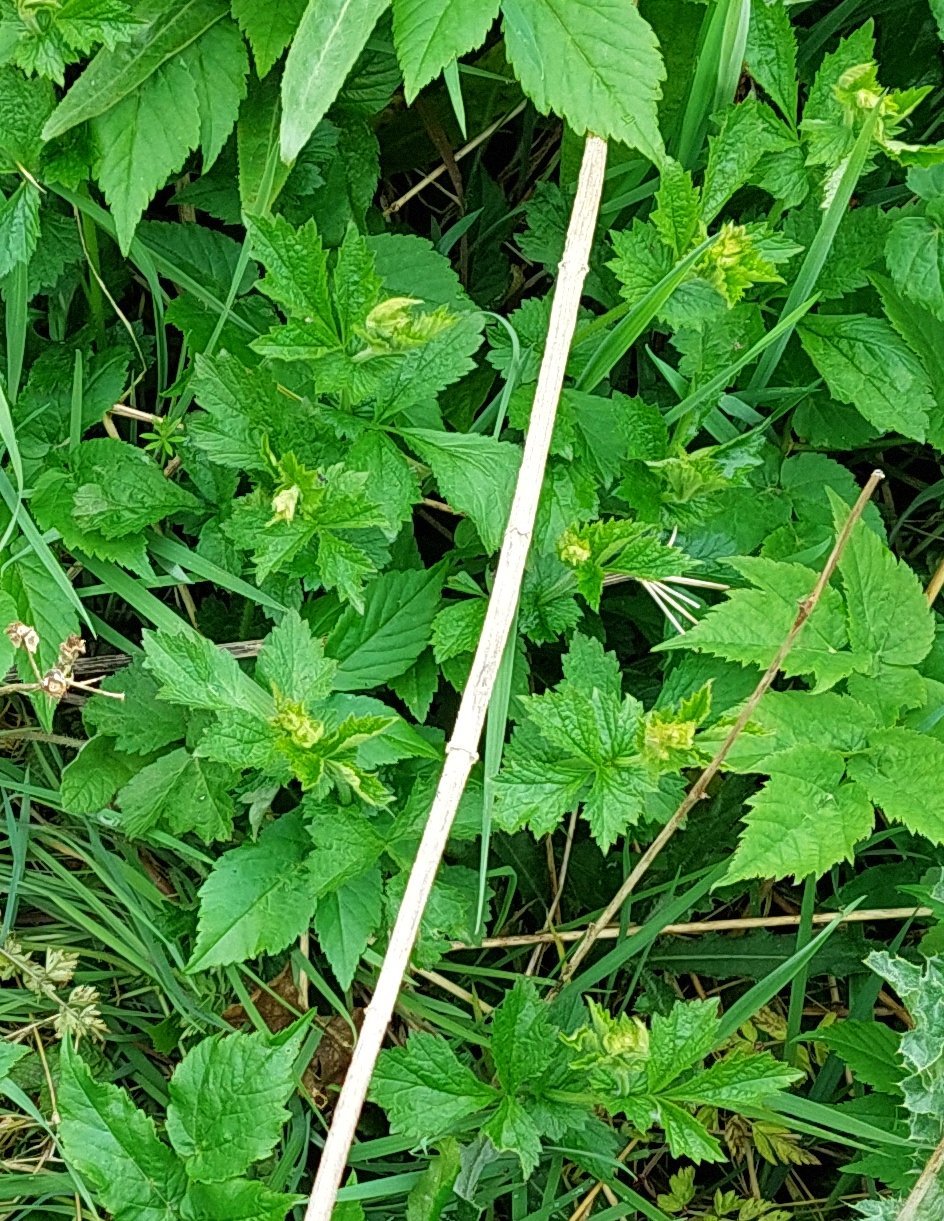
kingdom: Plantae
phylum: Tracheophyta
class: Magnoliopsida
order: Rosales
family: Rosaceae
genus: Geum
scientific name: Geum urbanum
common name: Wood avens
